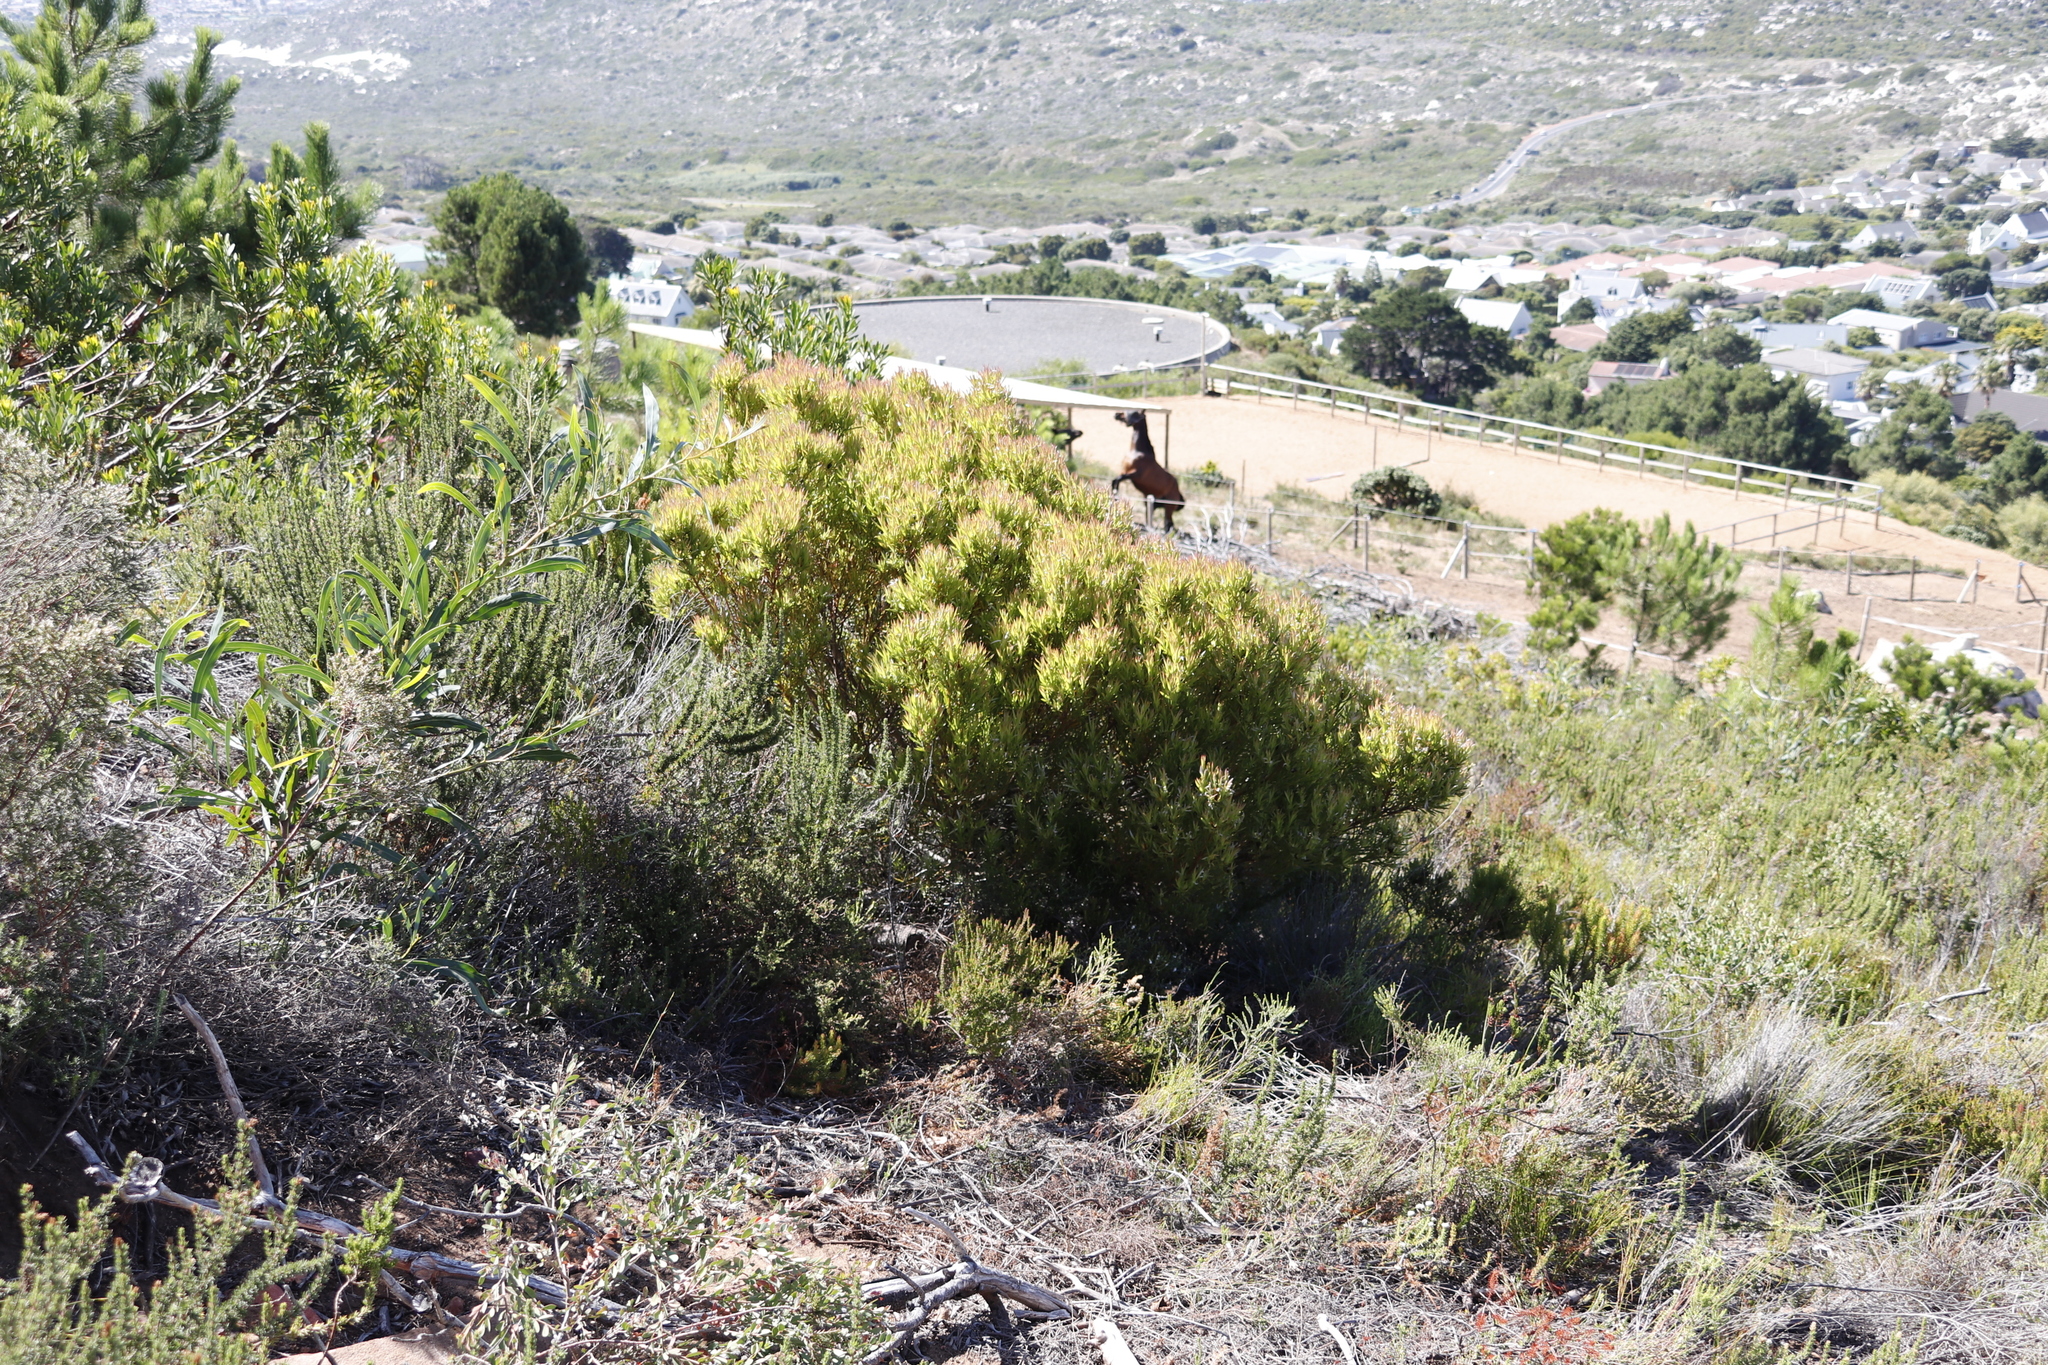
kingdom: Plantae
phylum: Tracheophyta
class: Magnoliopsida
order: Proteales
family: Proteaceae
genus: Leucadendron
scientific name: Leucadendron xanthoconus
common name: Sickle-leaf conebush
